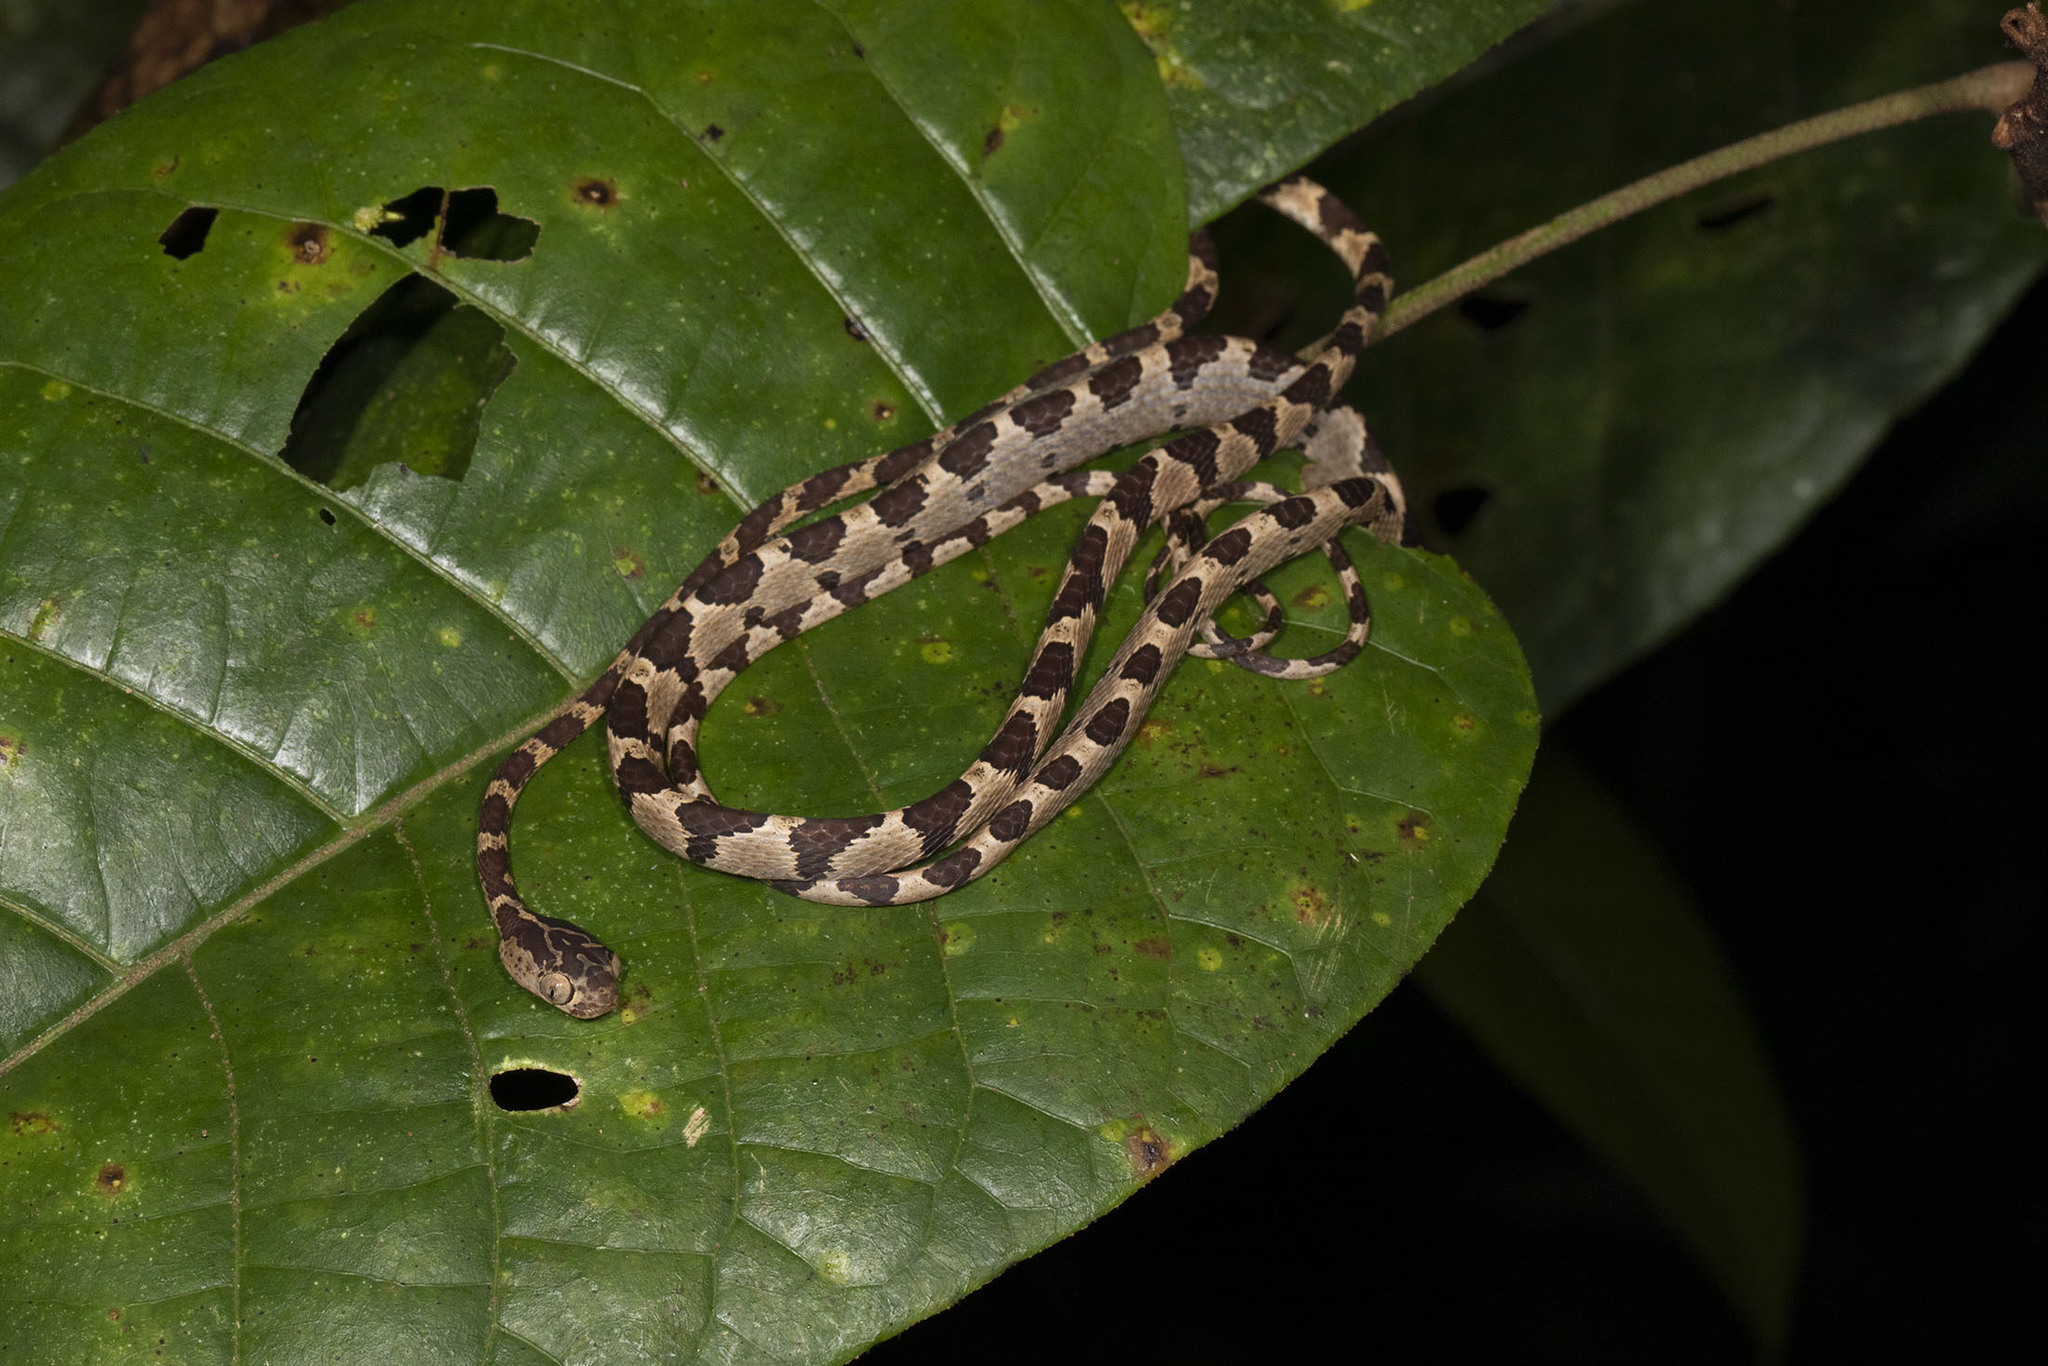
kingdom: Animalia
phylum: Chordata
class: Squamata
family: Colubridae
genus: Imantodes
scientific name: Imantodes cenchoa
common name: Blunthead tree snake
